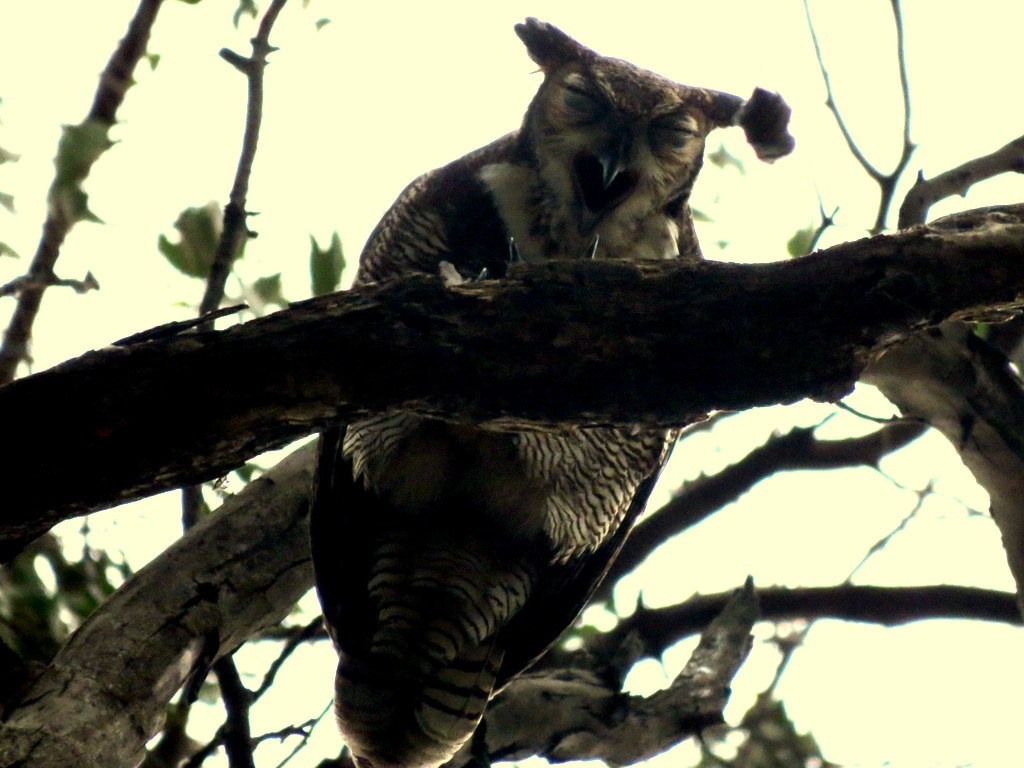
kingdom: Animalia
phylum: Chordata
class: Aves
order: Strigiformes
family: Strigidae
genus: Bubo
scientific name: Bubo virginianus
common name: Great horned owl
